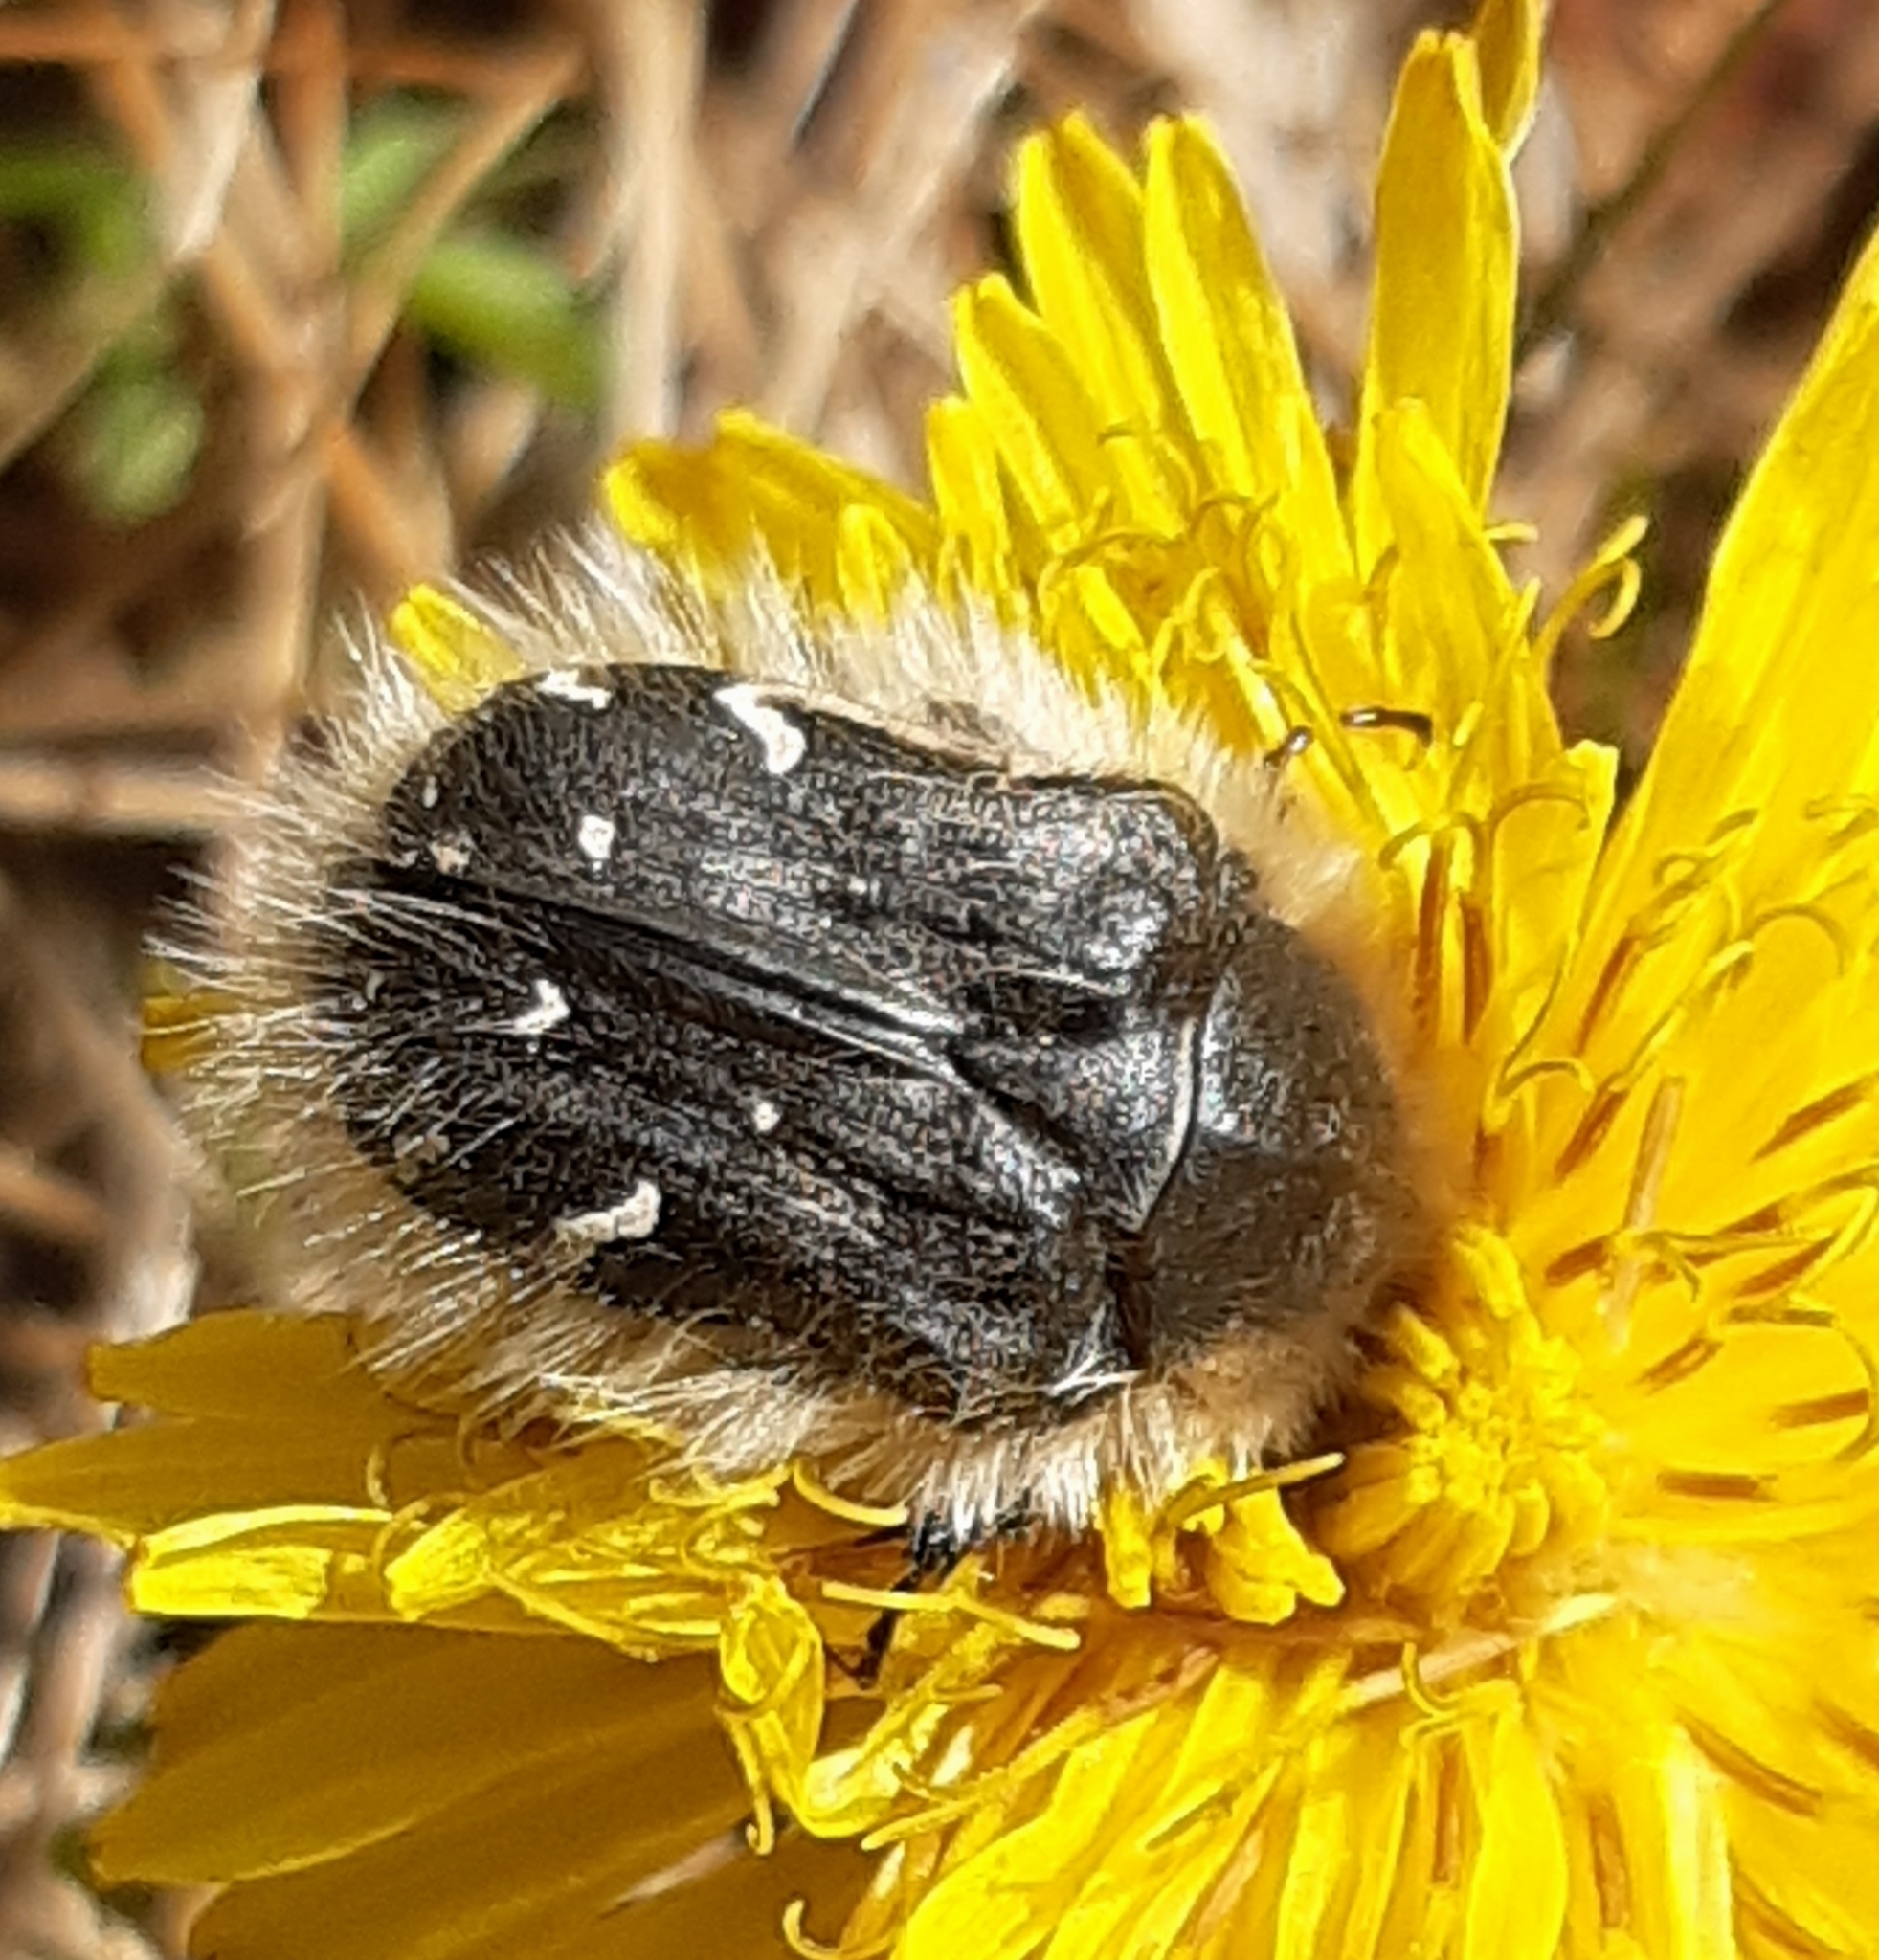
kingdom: Animalia
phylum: Arthropoda
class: Insecta
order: Coleoptera
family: Scarabaeidae
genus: Tropinota
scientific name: Tropinota hirta
